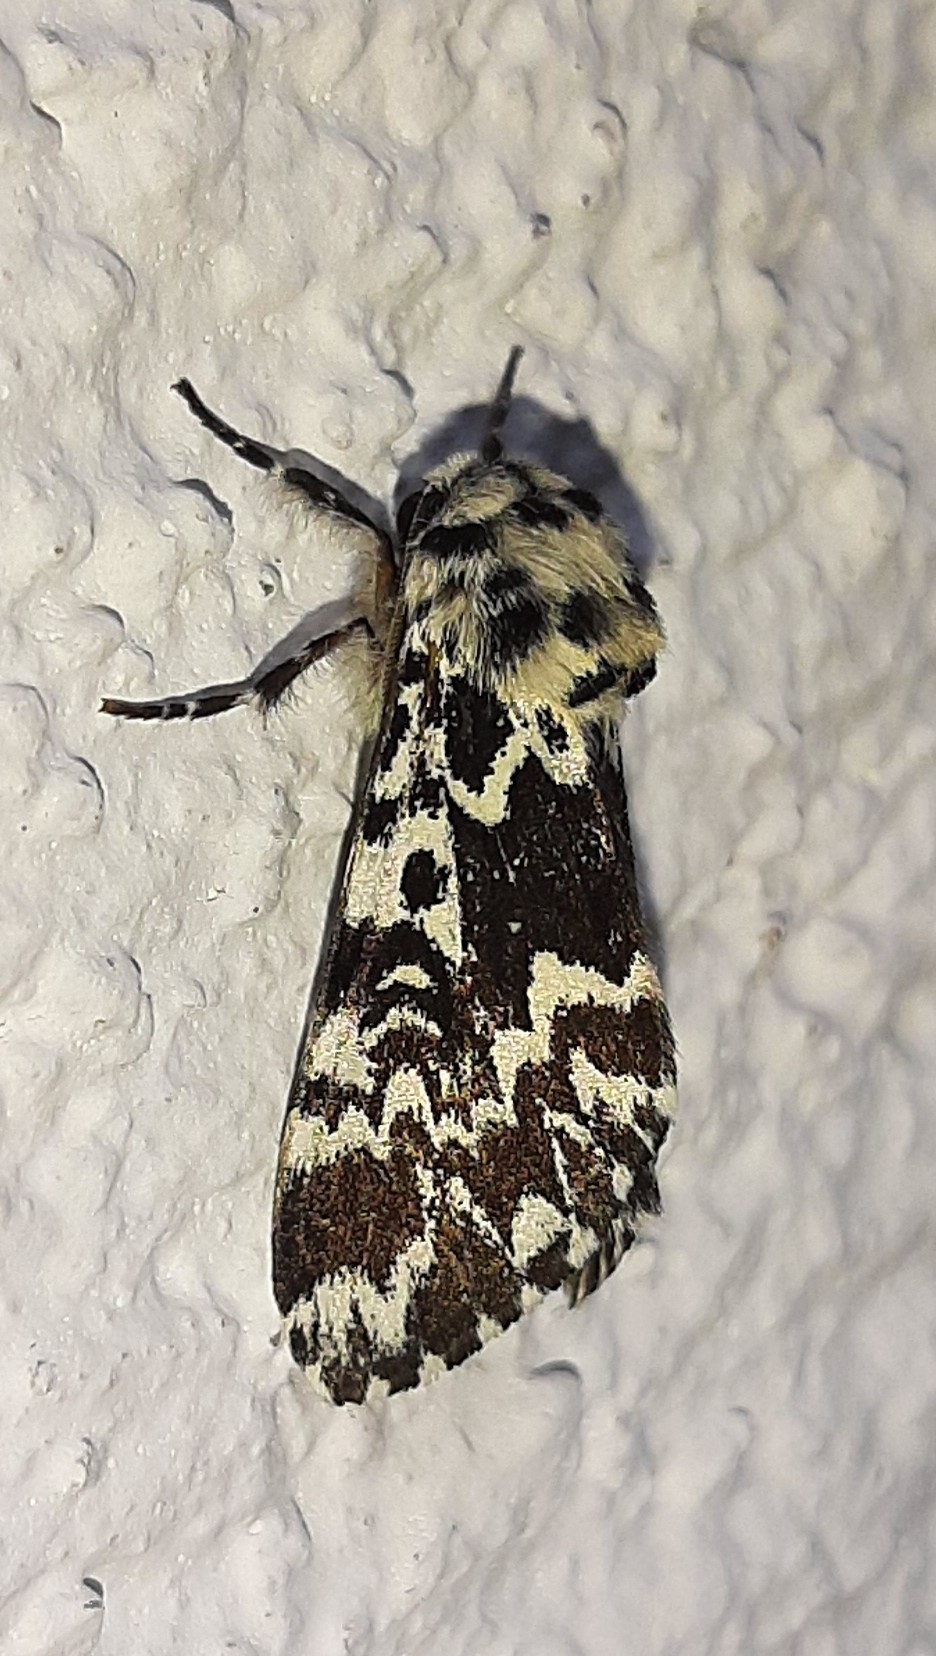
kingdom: Animalia
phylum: Arthropoda
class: Insecta
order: Lepidoptera
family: Noctuidae
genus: Panthea
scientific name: Panthea coenobita
